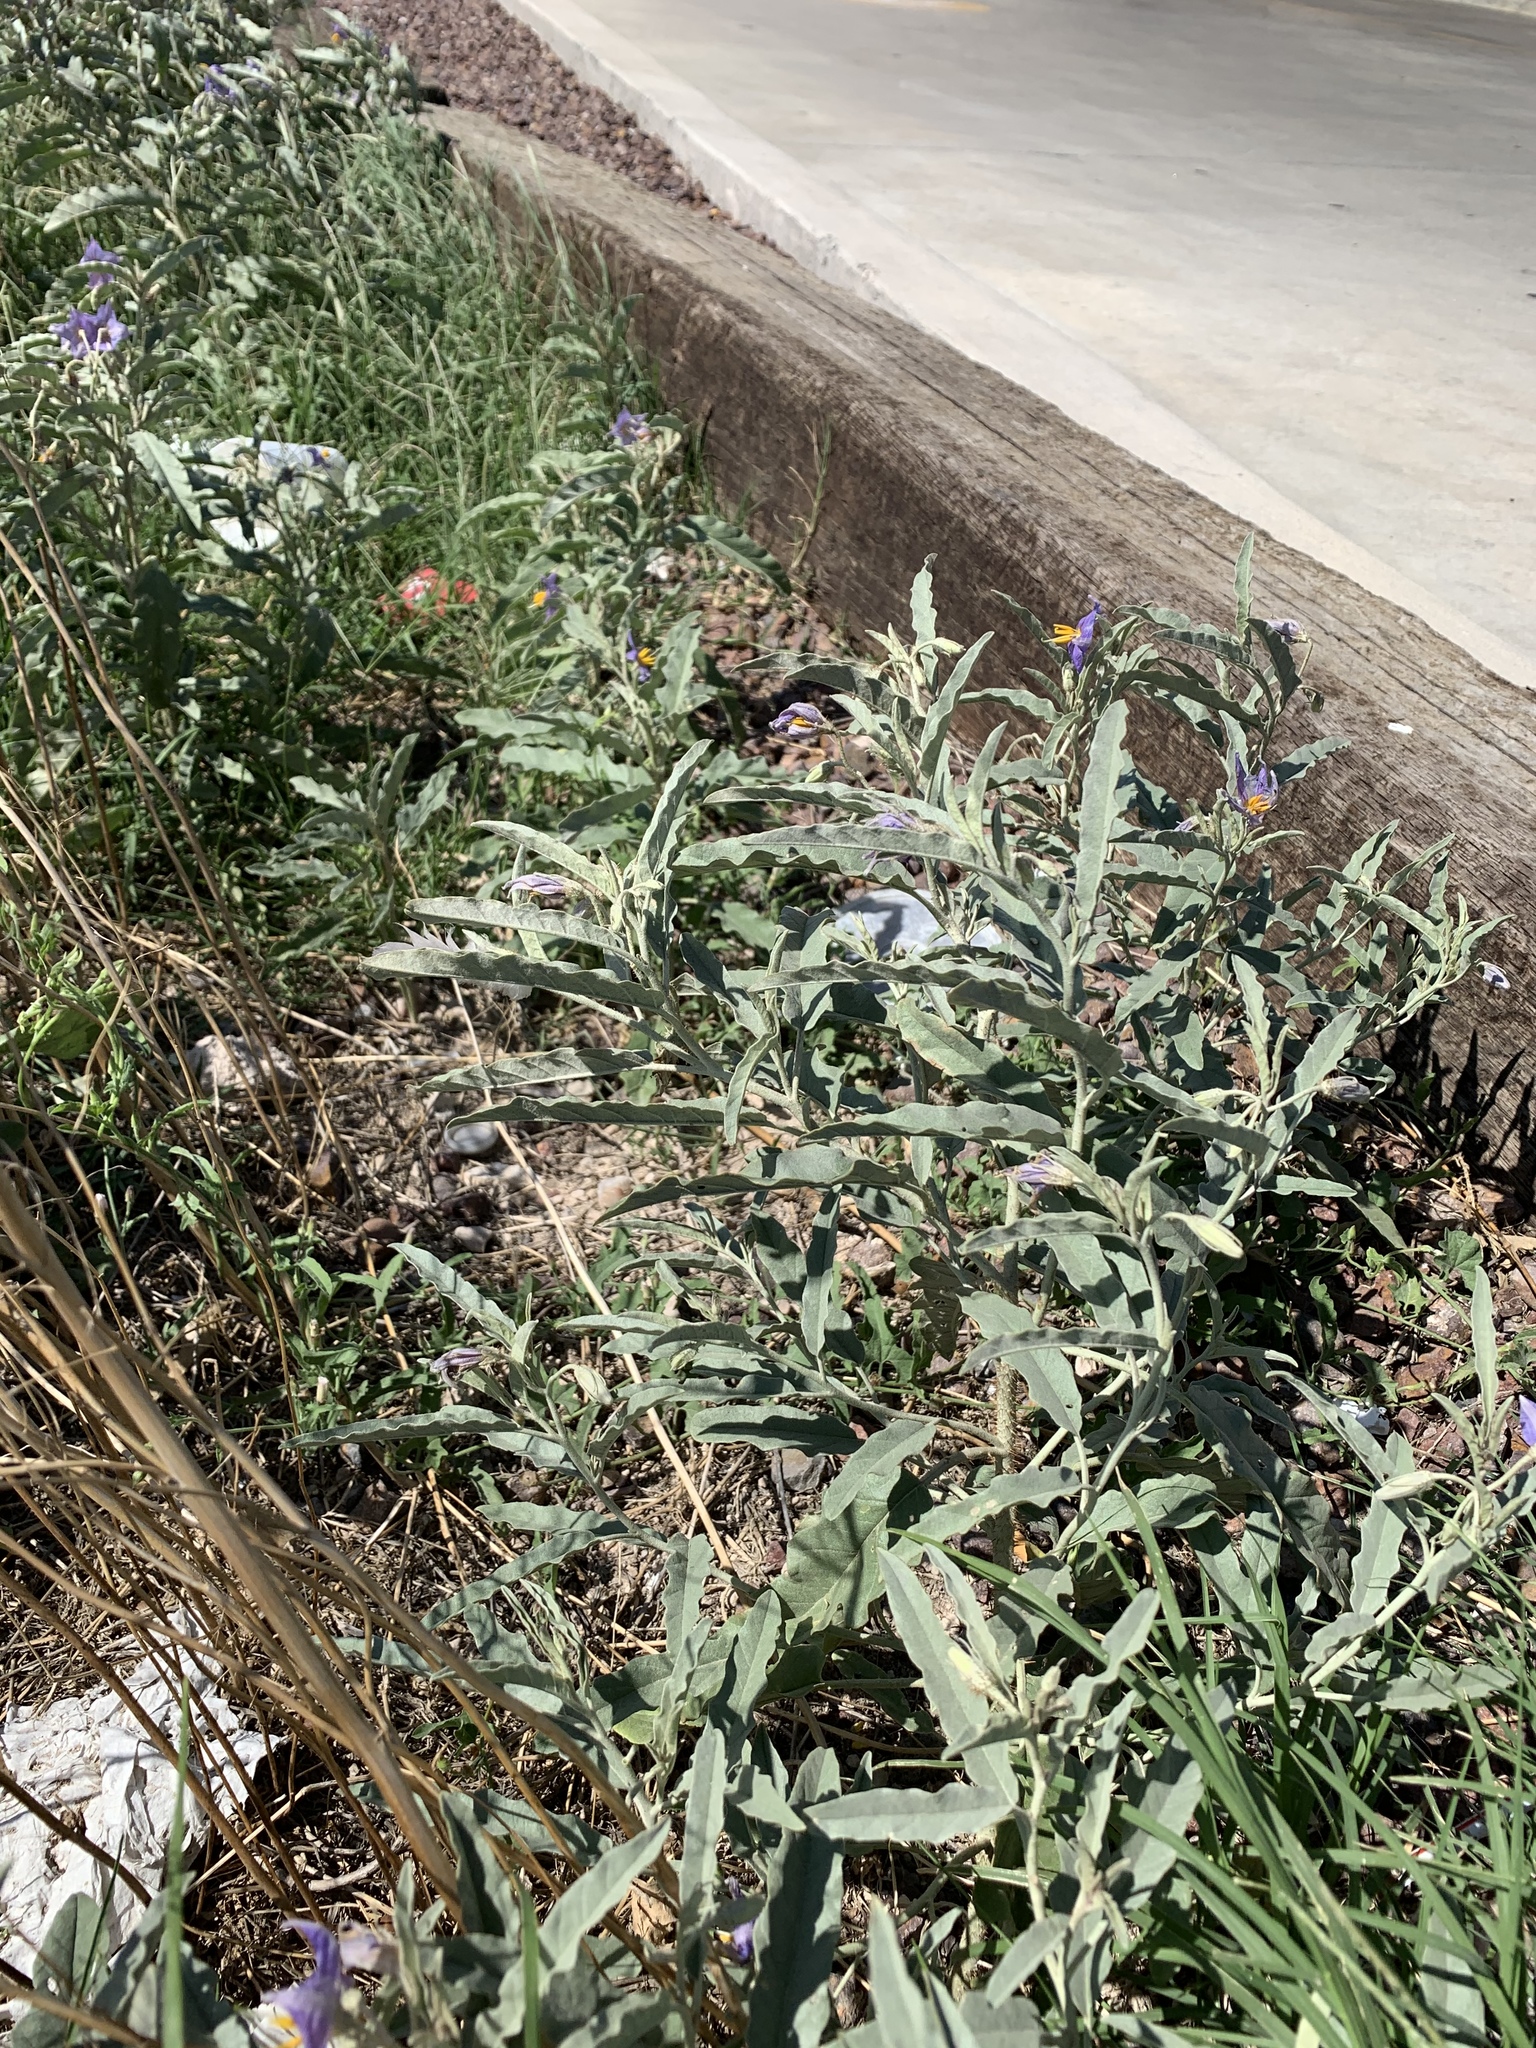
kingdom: Plantae
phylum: Tracheophyta
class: Magnoliopsida
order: Solanales
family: Solanaceae
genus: Solanum
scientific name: Solanum elaeagnifolium
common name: Silverleaf nightshade
